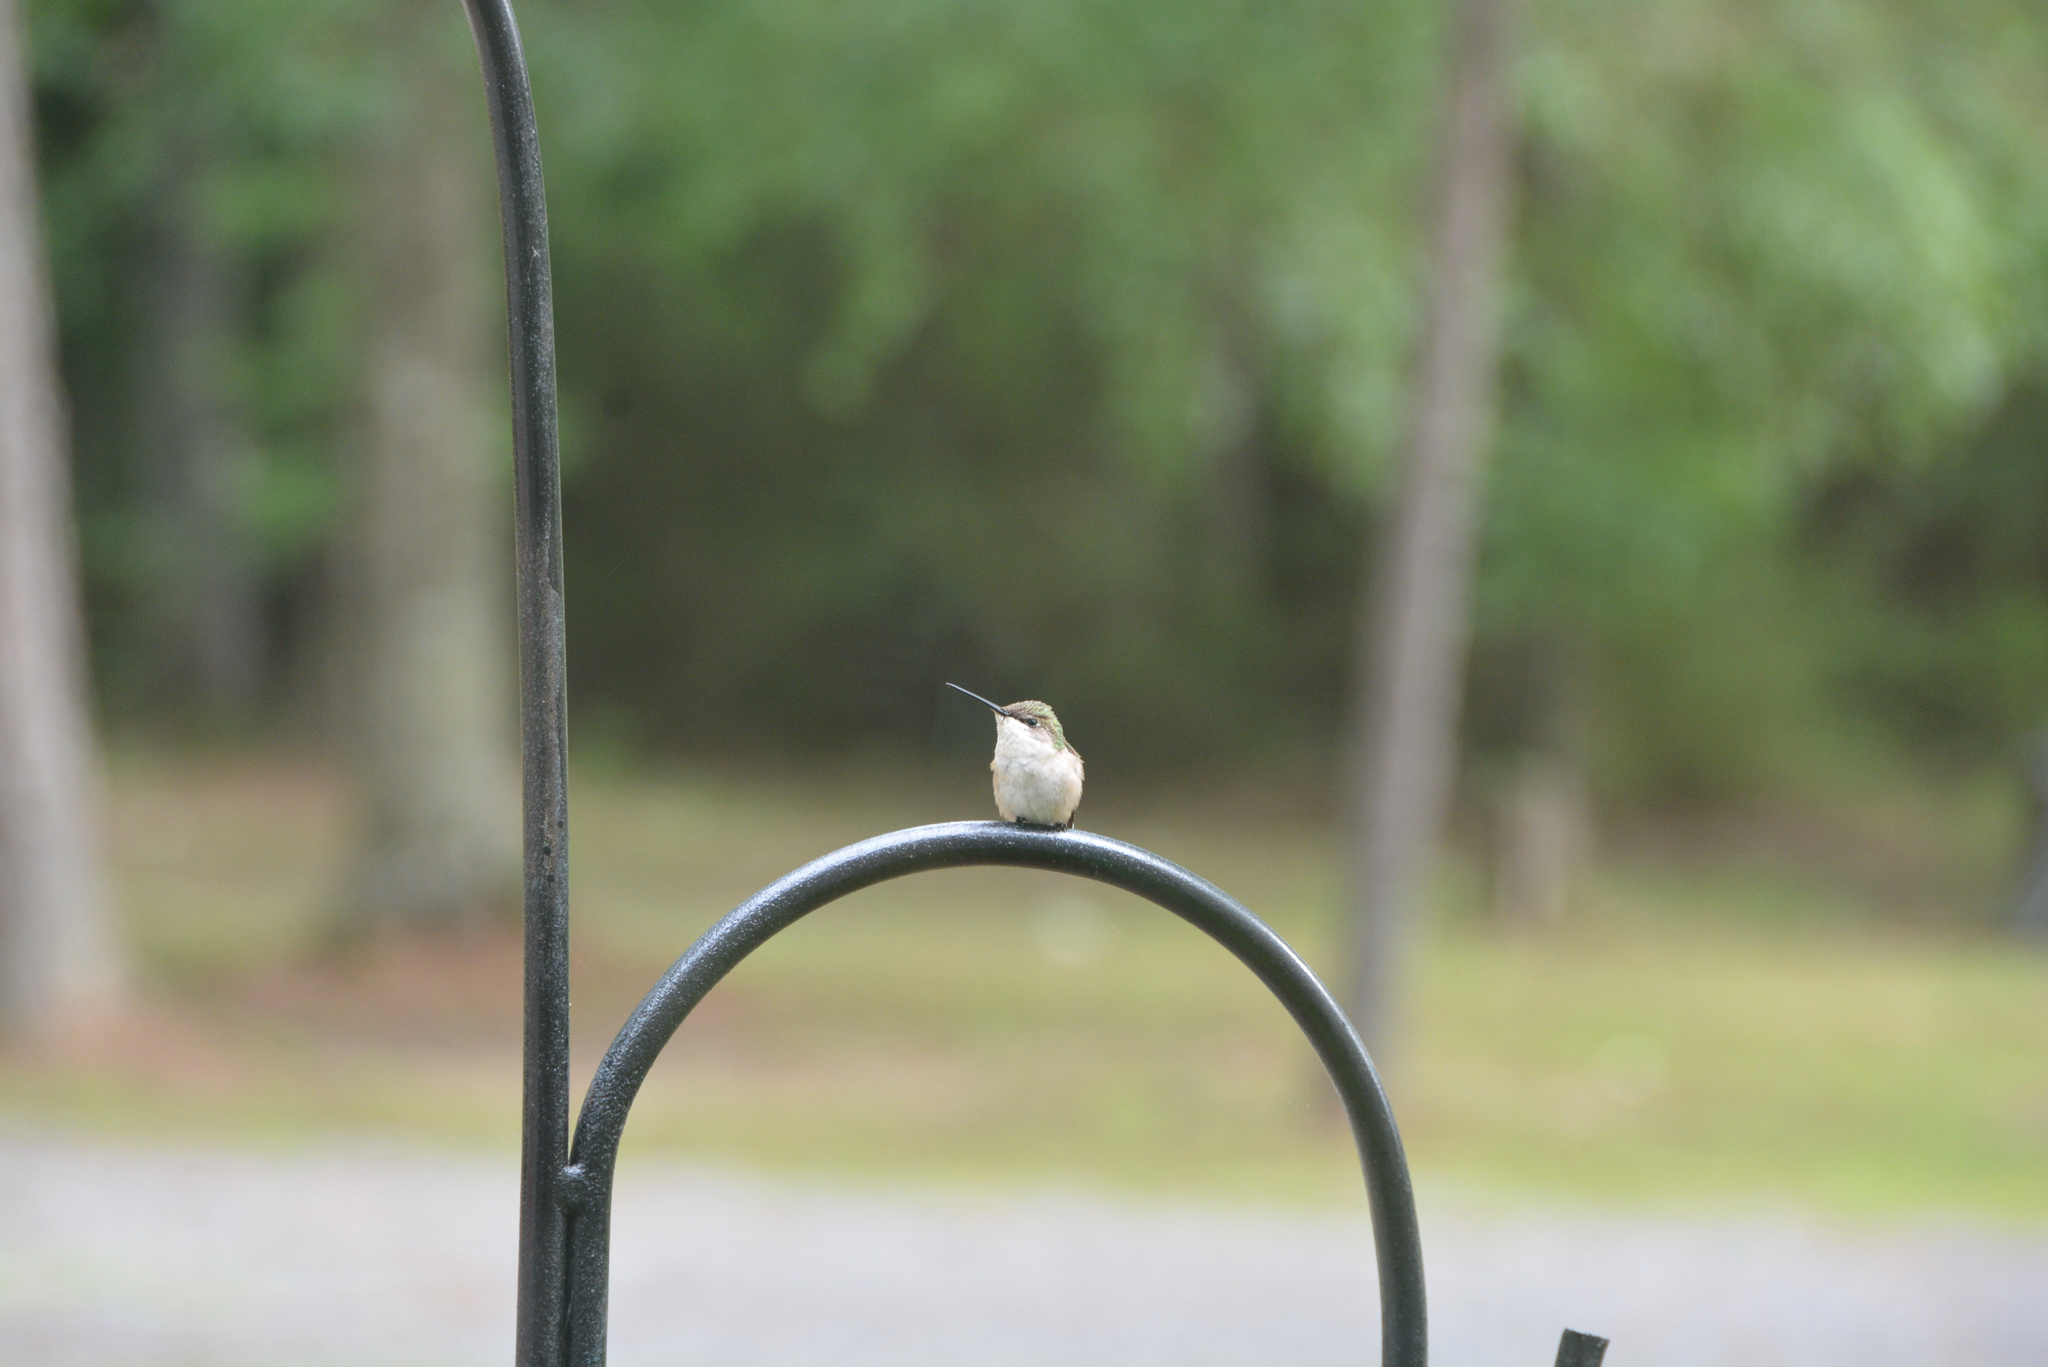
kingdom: Animalia
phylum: Chordata
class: Aves
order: Apodiformes
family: Trochilidae
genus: Archilochus
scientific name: Archilochus colubris
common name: Ruby-throated hummingbird
